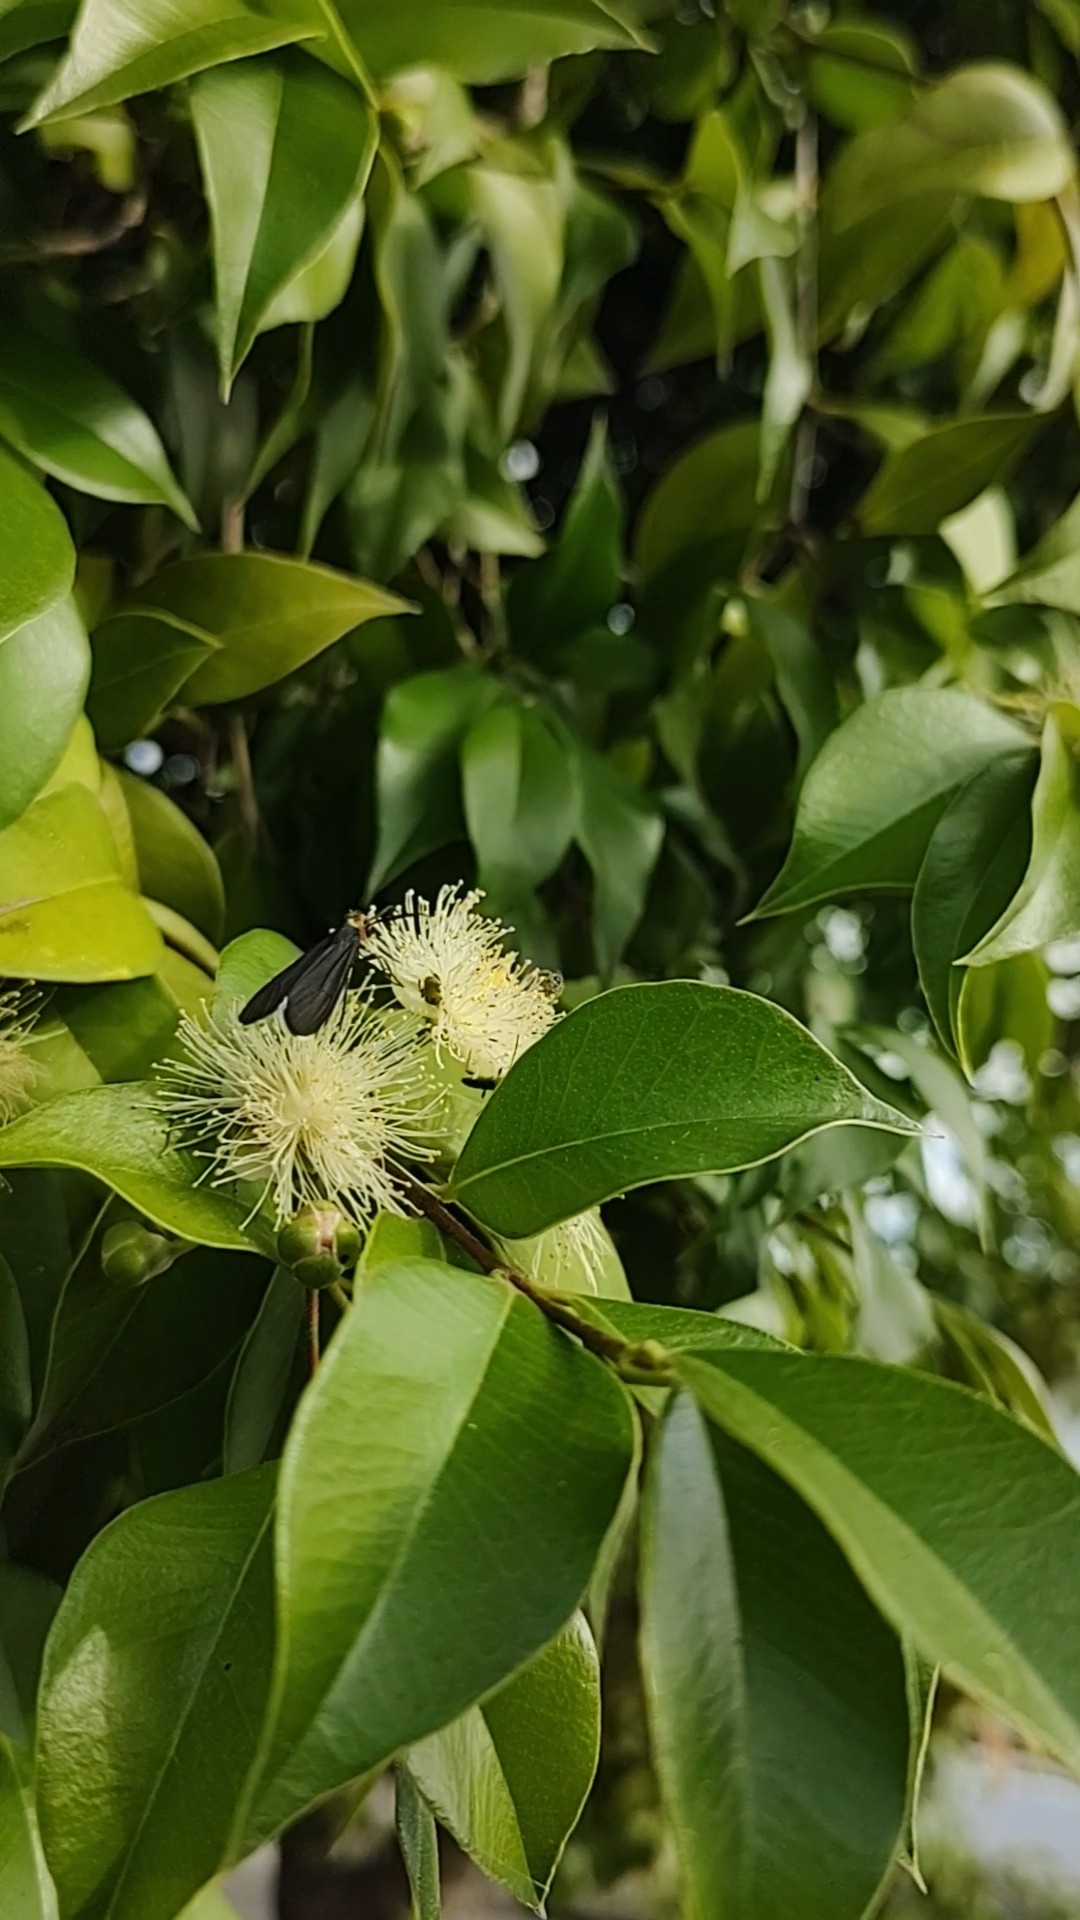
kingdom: Animalia
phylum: Arthropoda
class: Insecta
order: Lepidoptera
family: Erebidae
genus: Ctenucha
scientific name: Ctenucha rubriceps
